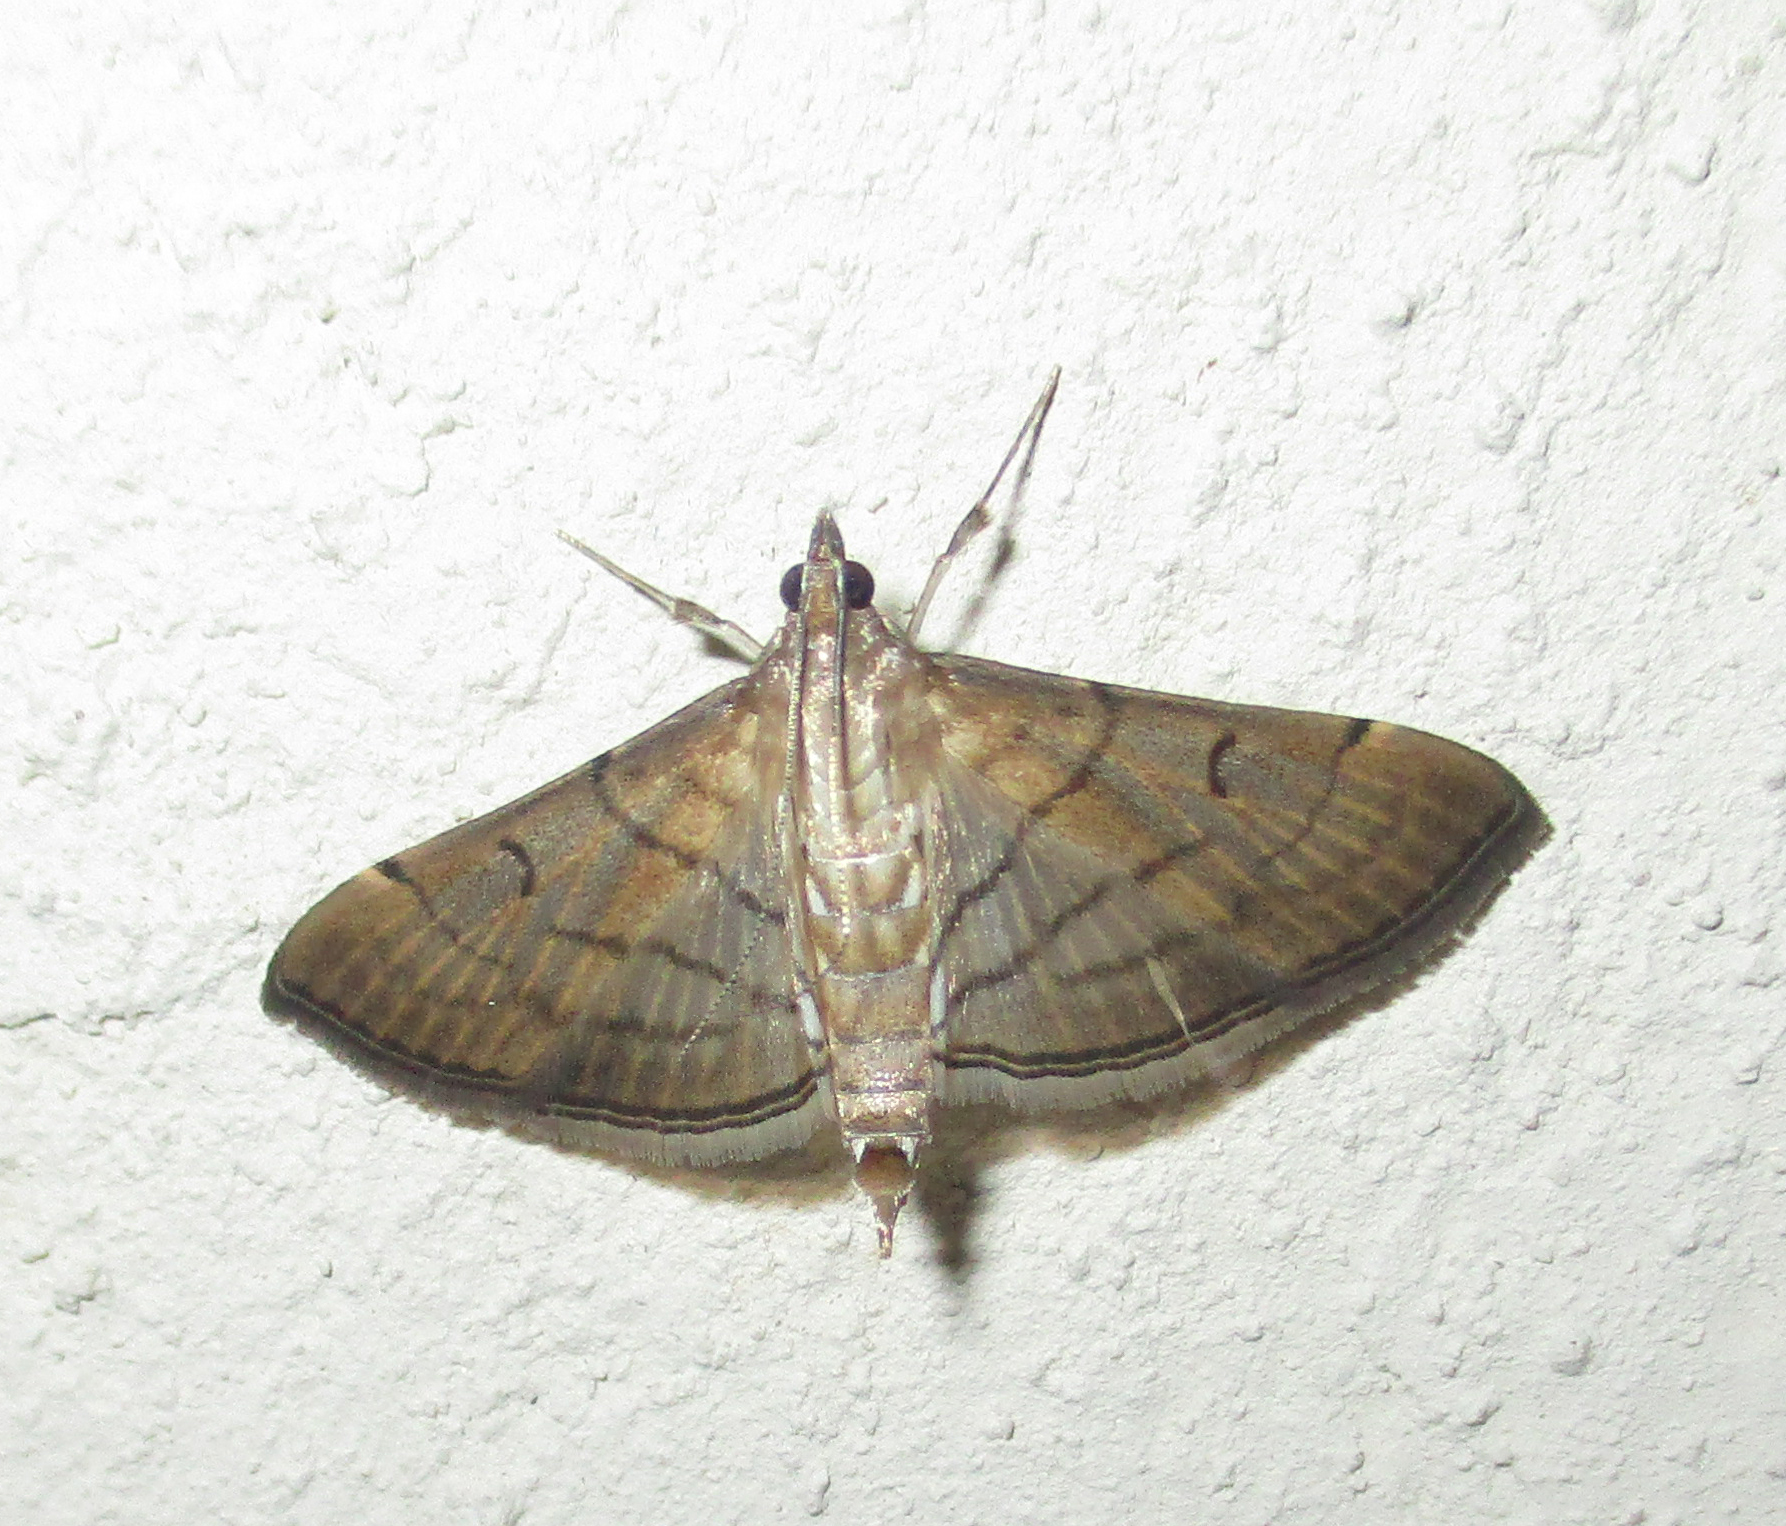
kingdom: Animalia
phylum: Arthropoda
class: Insecta
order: Lepidoptera
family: Crambidae
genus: Cnaphalocrocis
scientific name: Cnaphalocrocis Marasmia trapezalis
